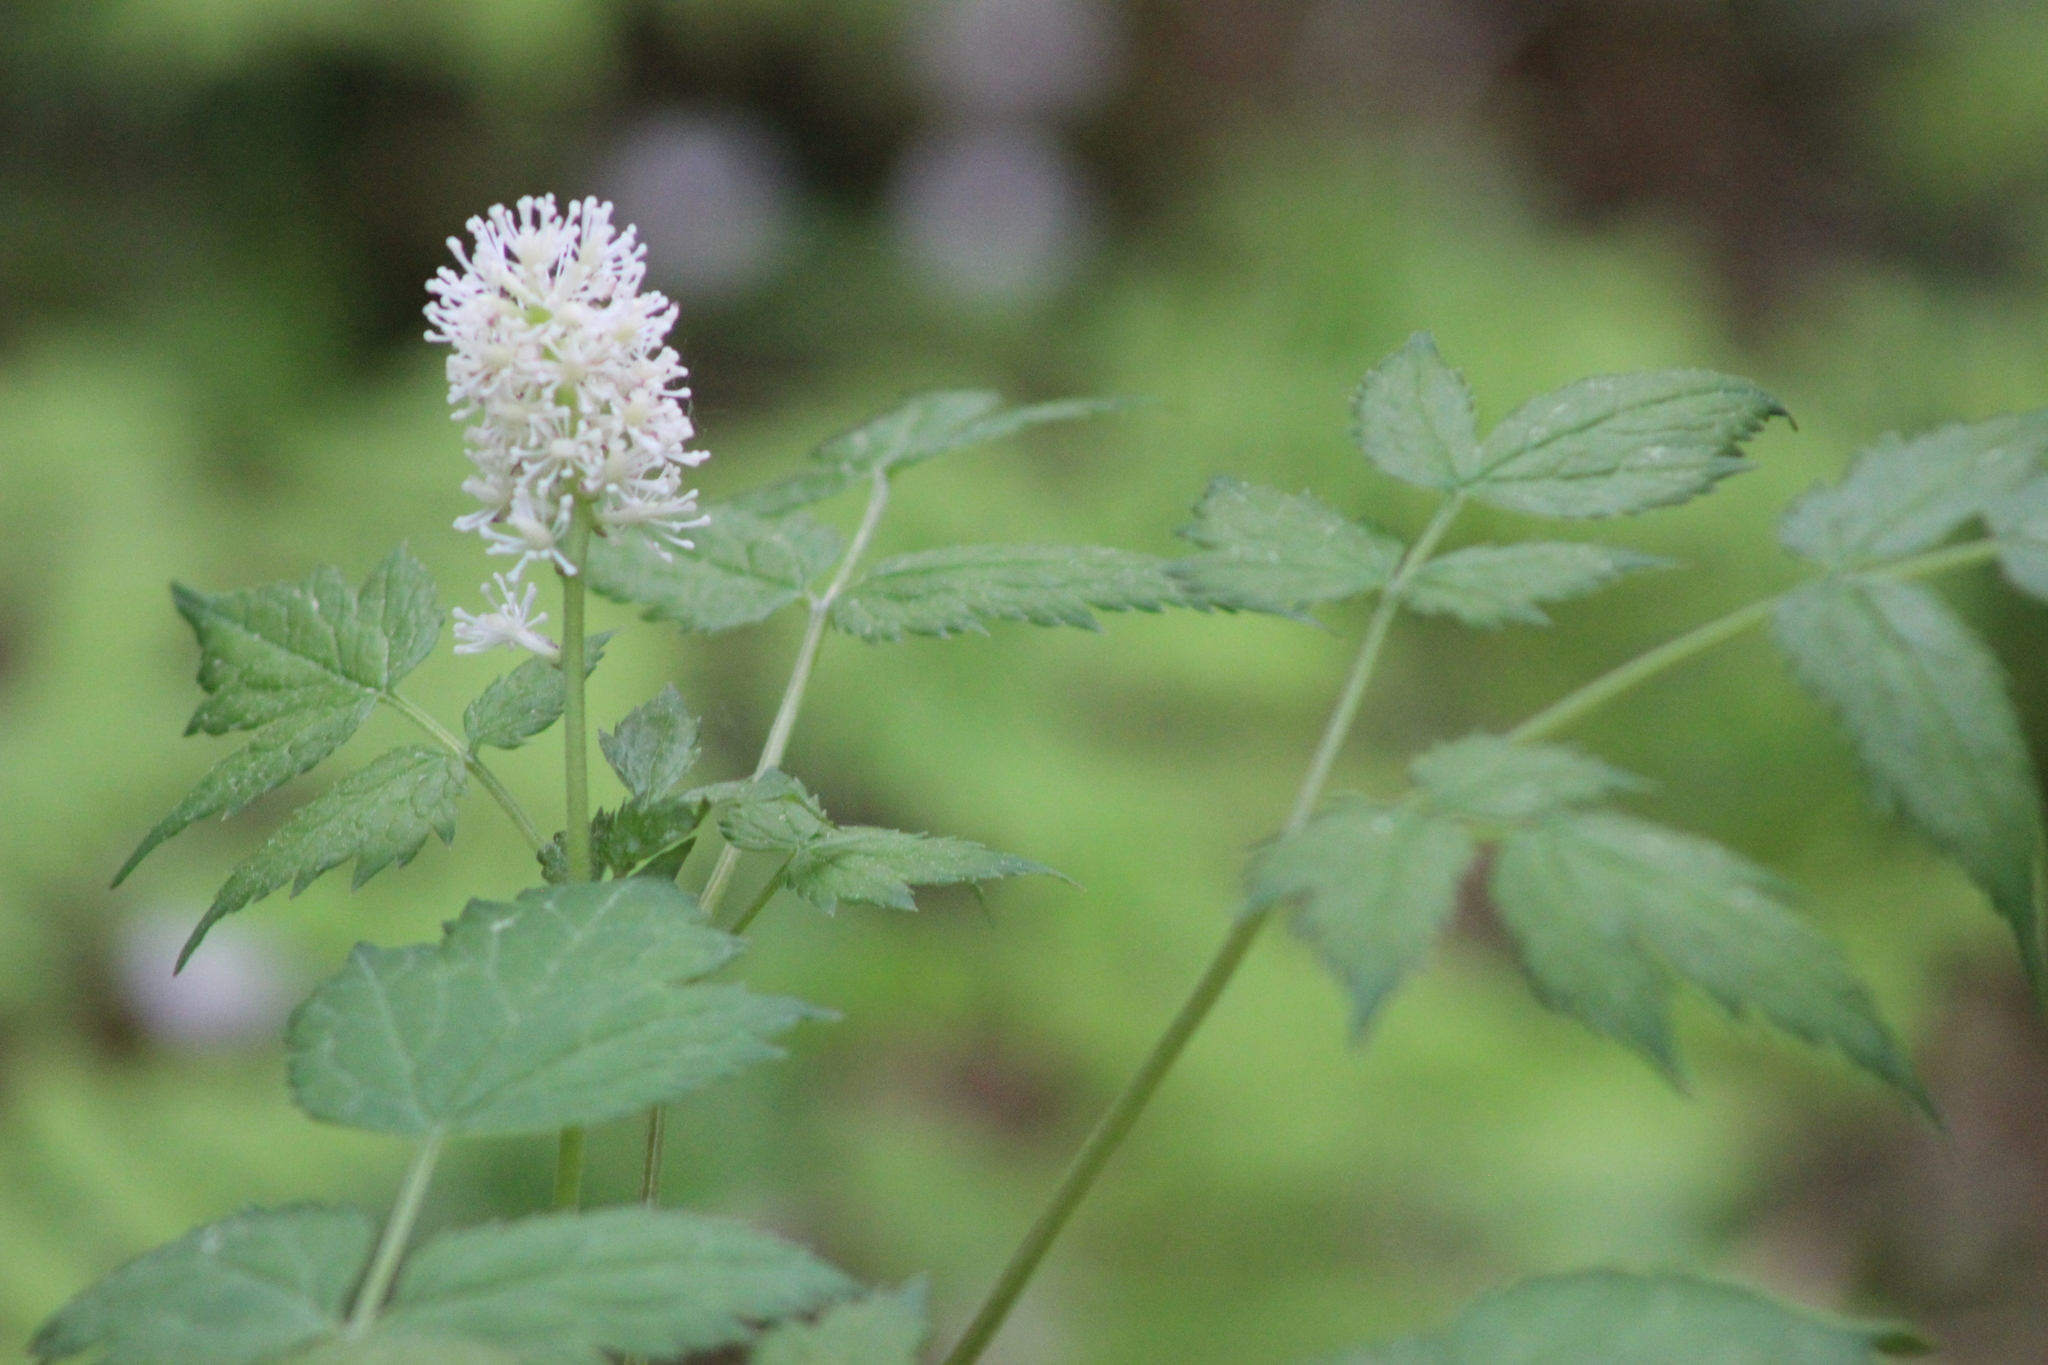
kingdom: Plantae
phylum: Tracheophyta
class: Magnoliopsida
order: Ranunculales
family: Ranunculaceae
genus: Actaea
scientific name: Actaea spicata
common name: Baneberry
